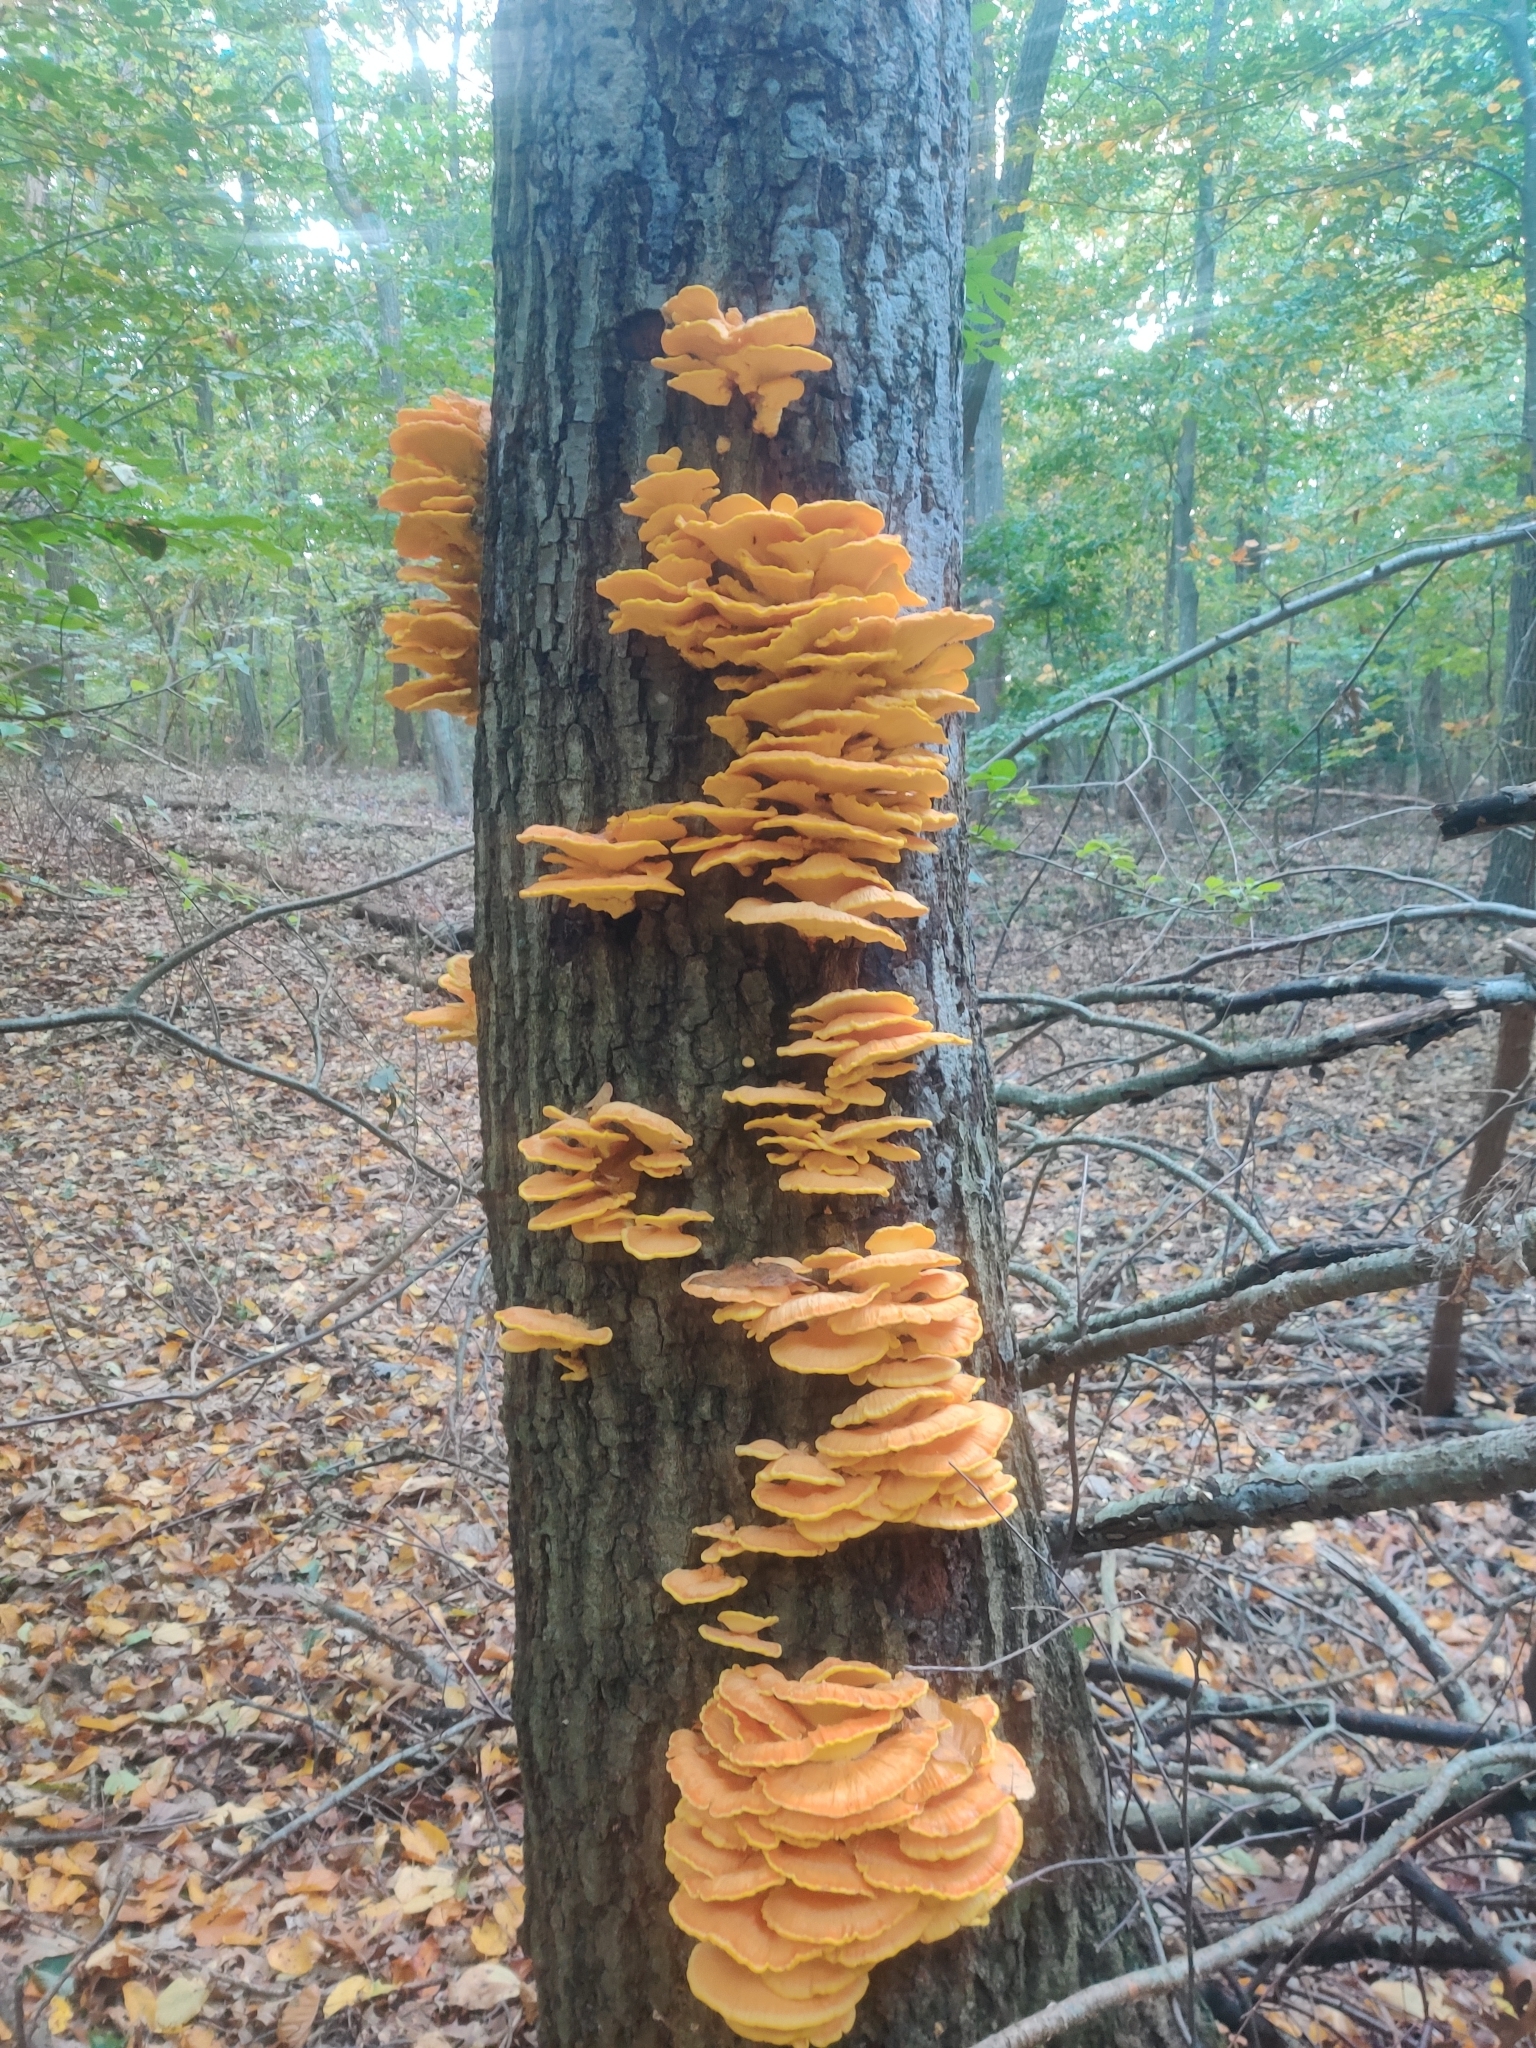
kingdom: Fungi
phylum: Basidiomycota
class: Agaricomycetes
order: Polyporales
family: Laetiporaceae
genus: Laetiporus
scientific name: Laetiporus sulphureus
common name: Chicken of the woods
